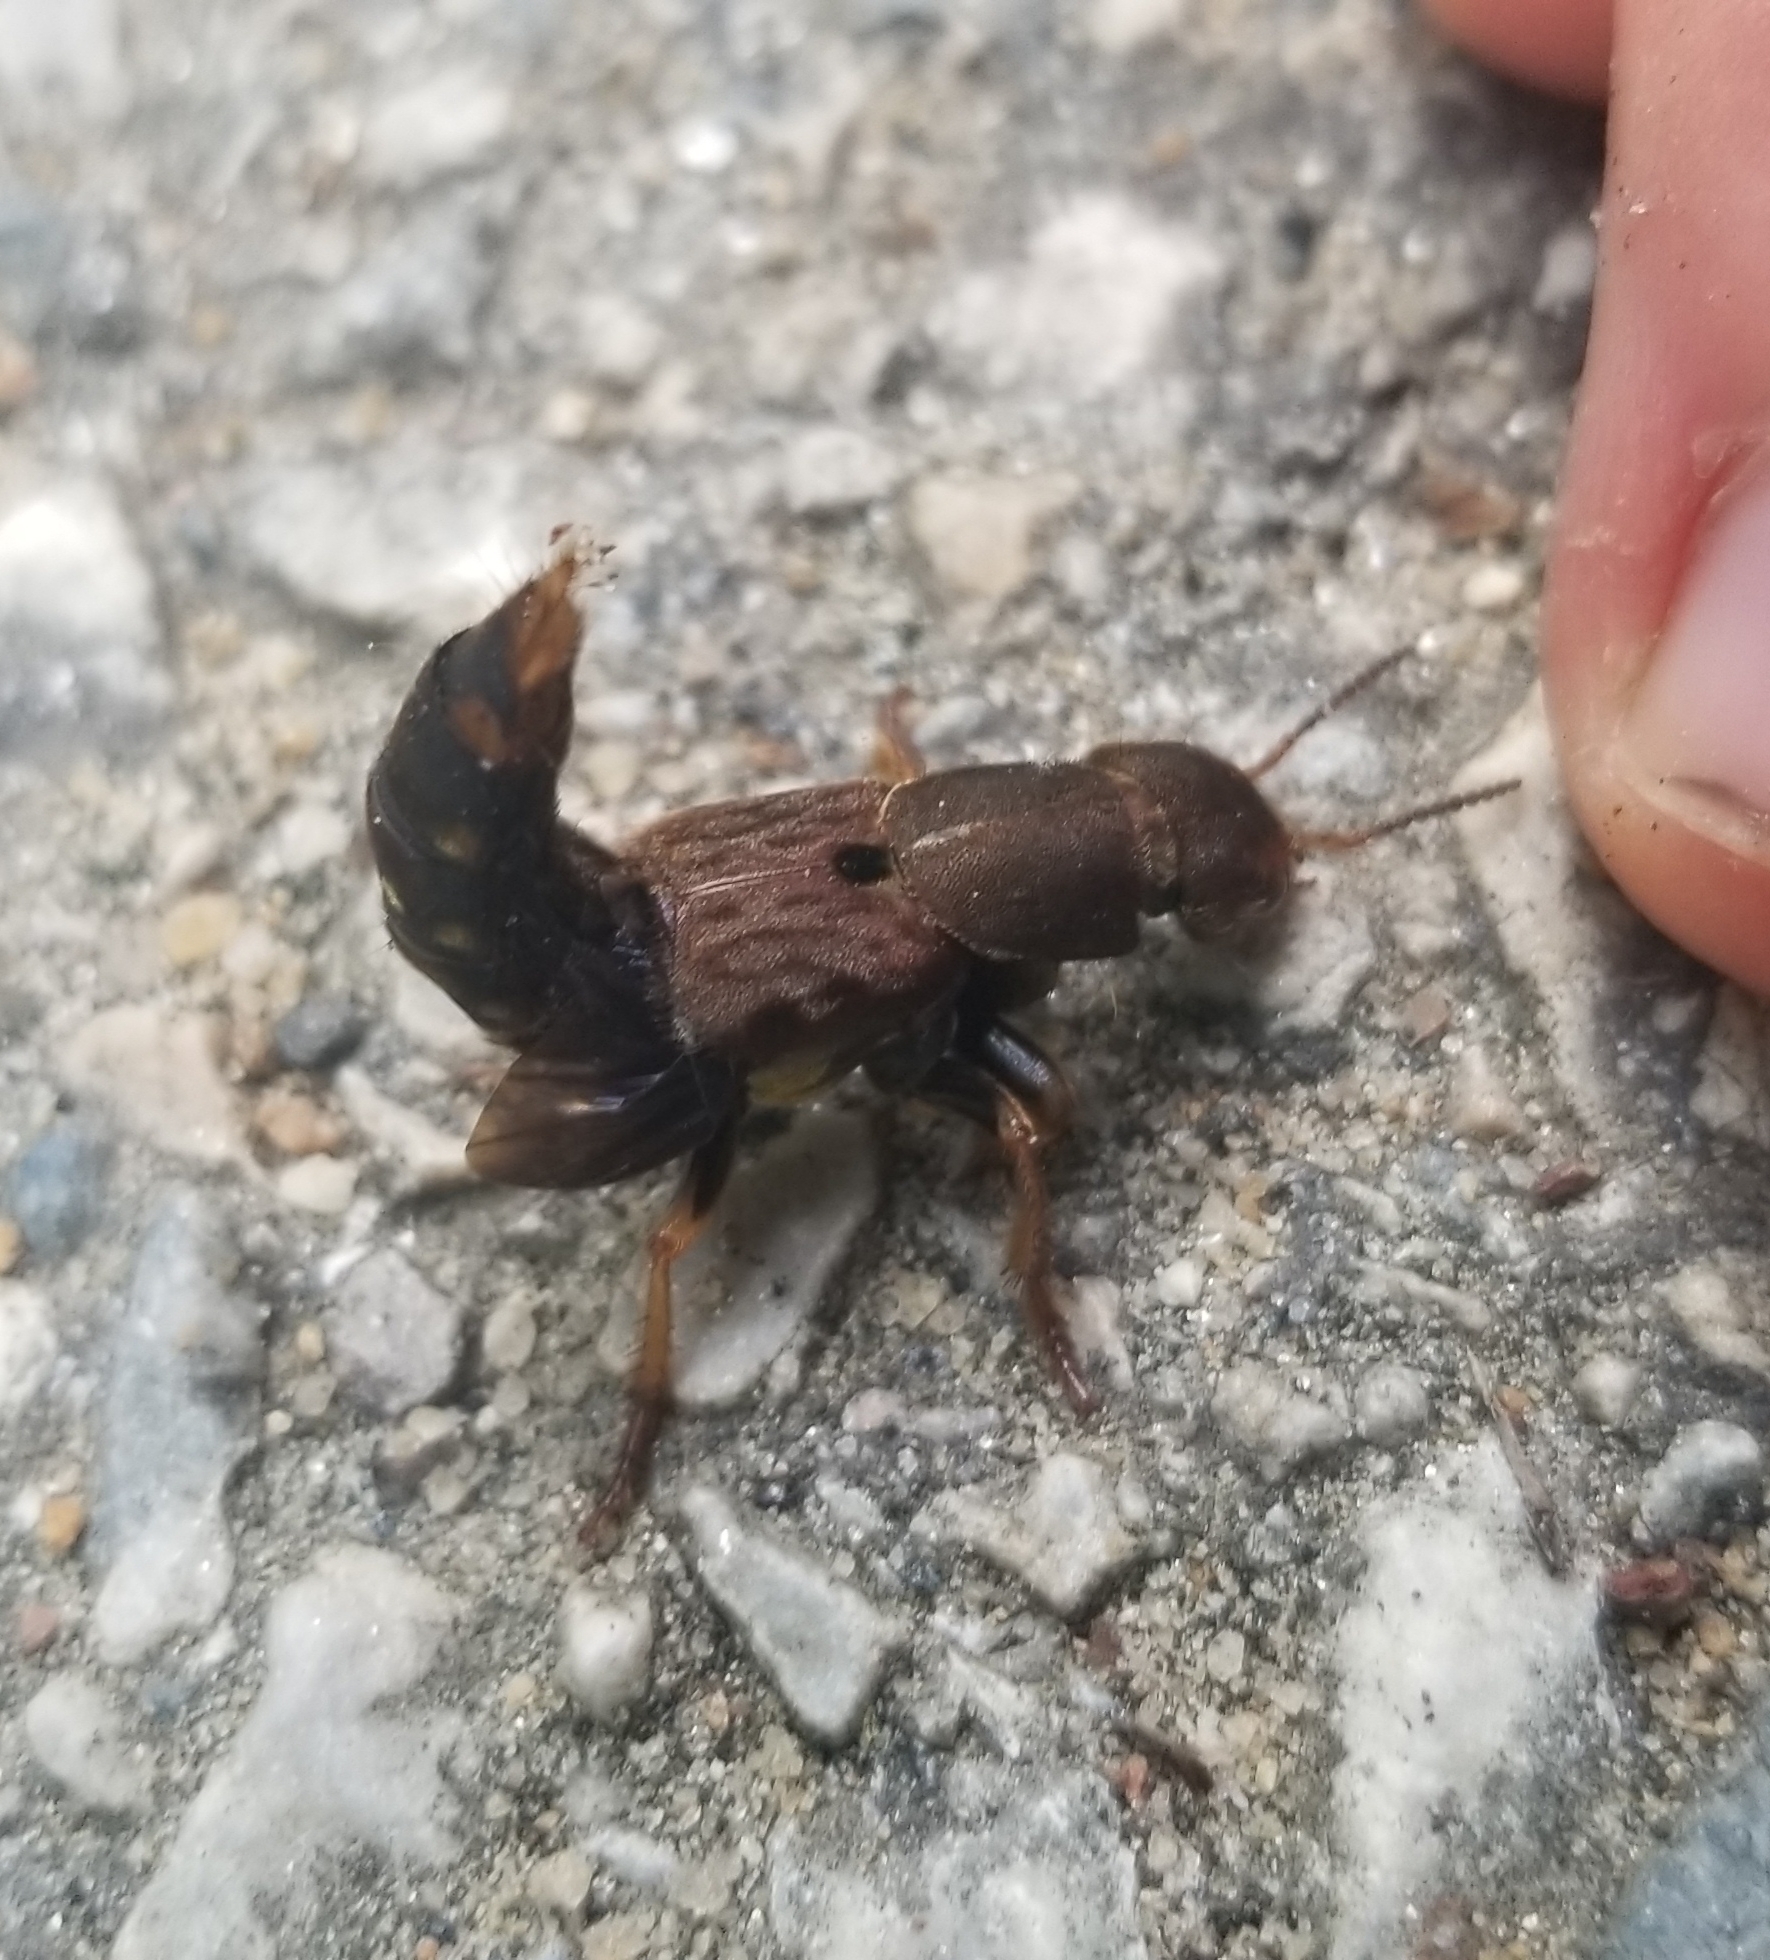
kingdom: Animalia
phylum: Arthropoda
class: Insecta
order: Coleoptera
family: Staphylinidae
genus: Platydracus
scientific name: Platydracus maculosus
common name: Brown rove beetle
